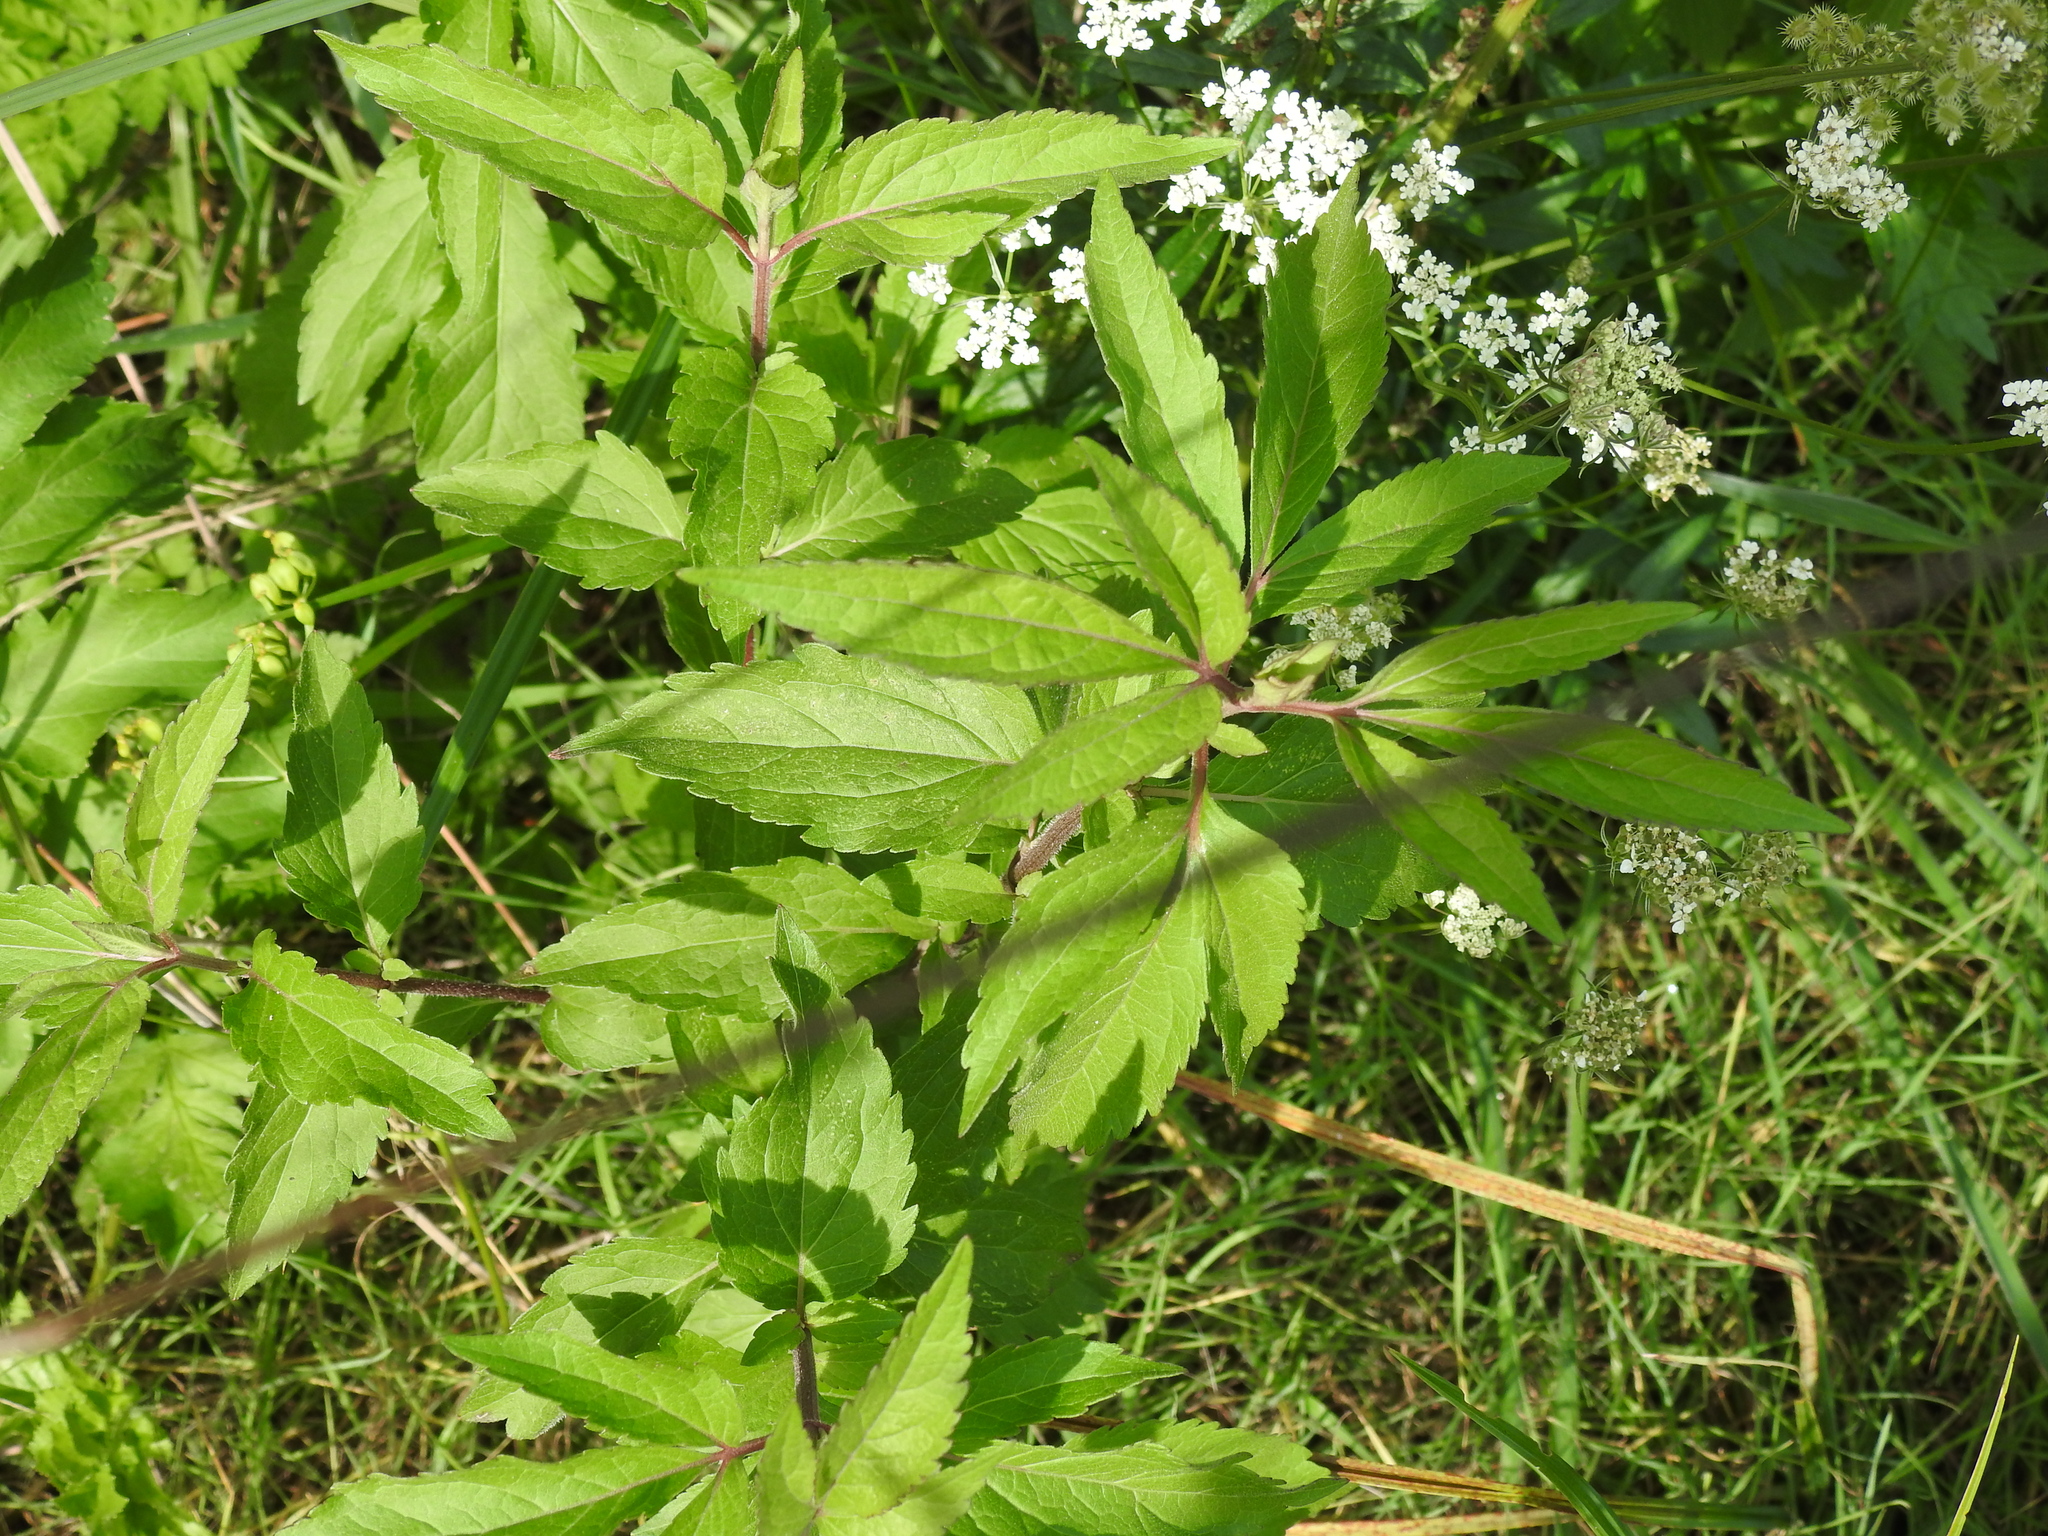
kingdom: Plantae
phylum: Tracheophyta
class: Magnoliopsida
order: Asterales
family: Asteraceae
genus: Eupatorium
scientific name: Eupatorium cannabinum
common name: Hemp-agrimony
